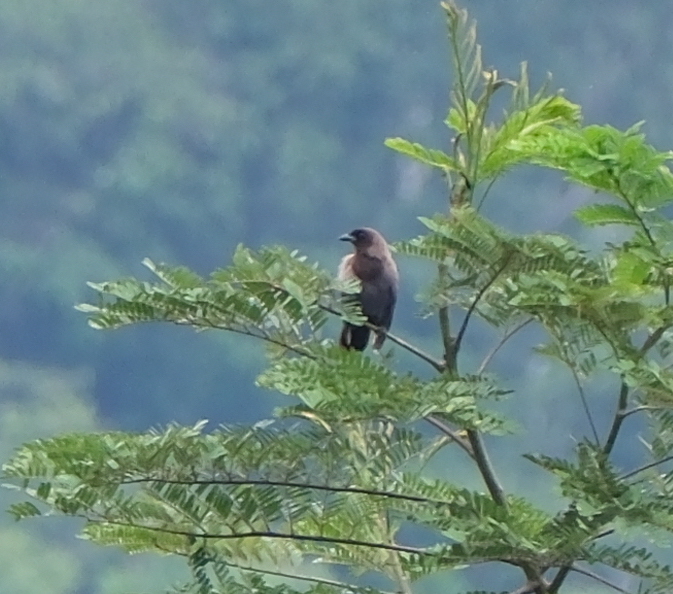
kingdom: Animalia
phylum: Chordata
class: Aves
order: Passeriformes
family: Corvidae
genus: Cyanocorax
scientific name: Cyanocorax cyanomelas
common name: Purplish jay
